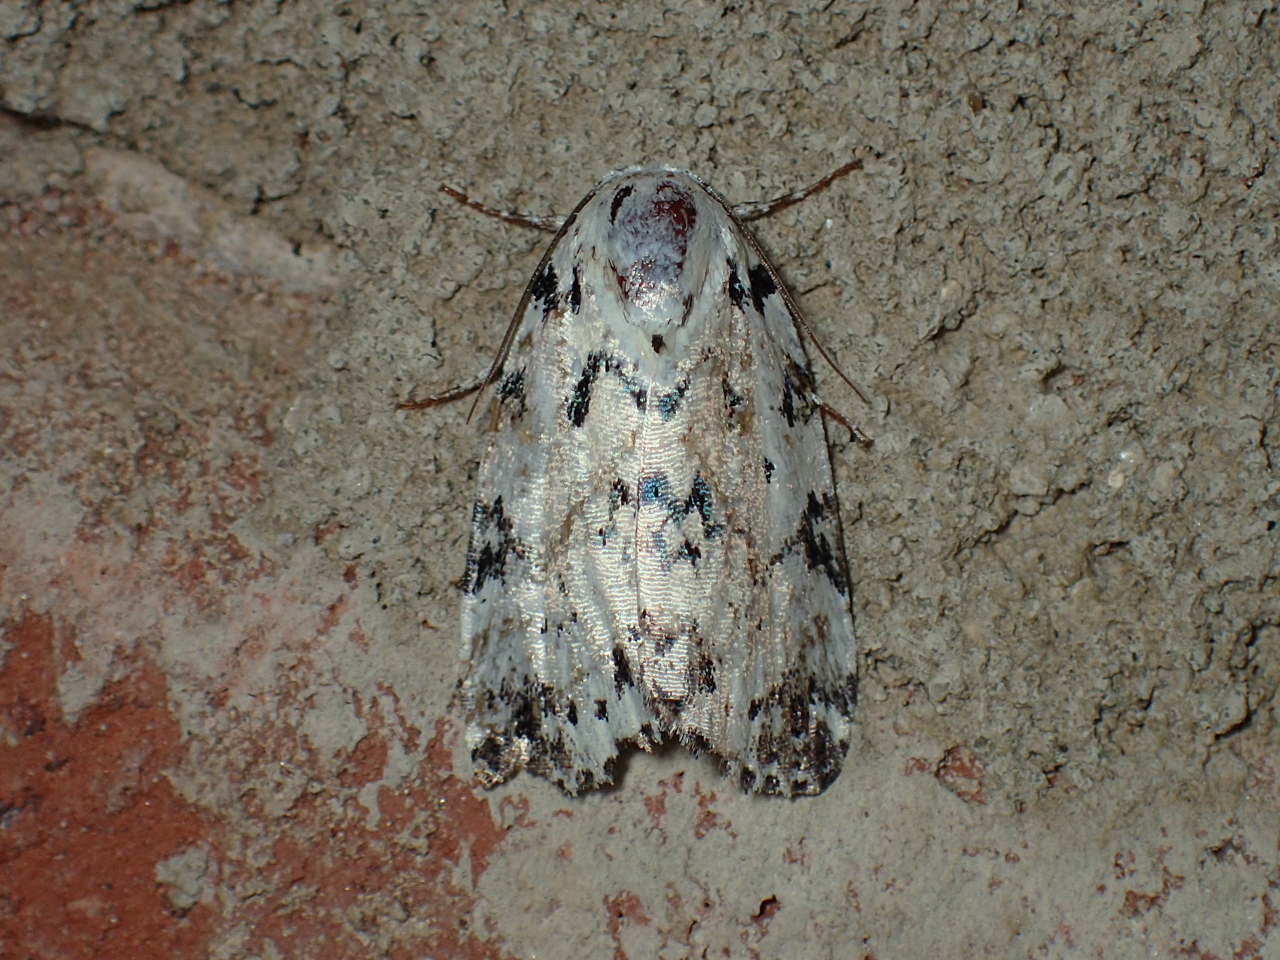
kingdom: Animalia
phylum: Arthropoda
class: Insecta
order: Lepidoptera
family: Noctuidae
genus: Polygrammate
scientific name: Polygrammate hebraeicum
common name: Hebrew moth
